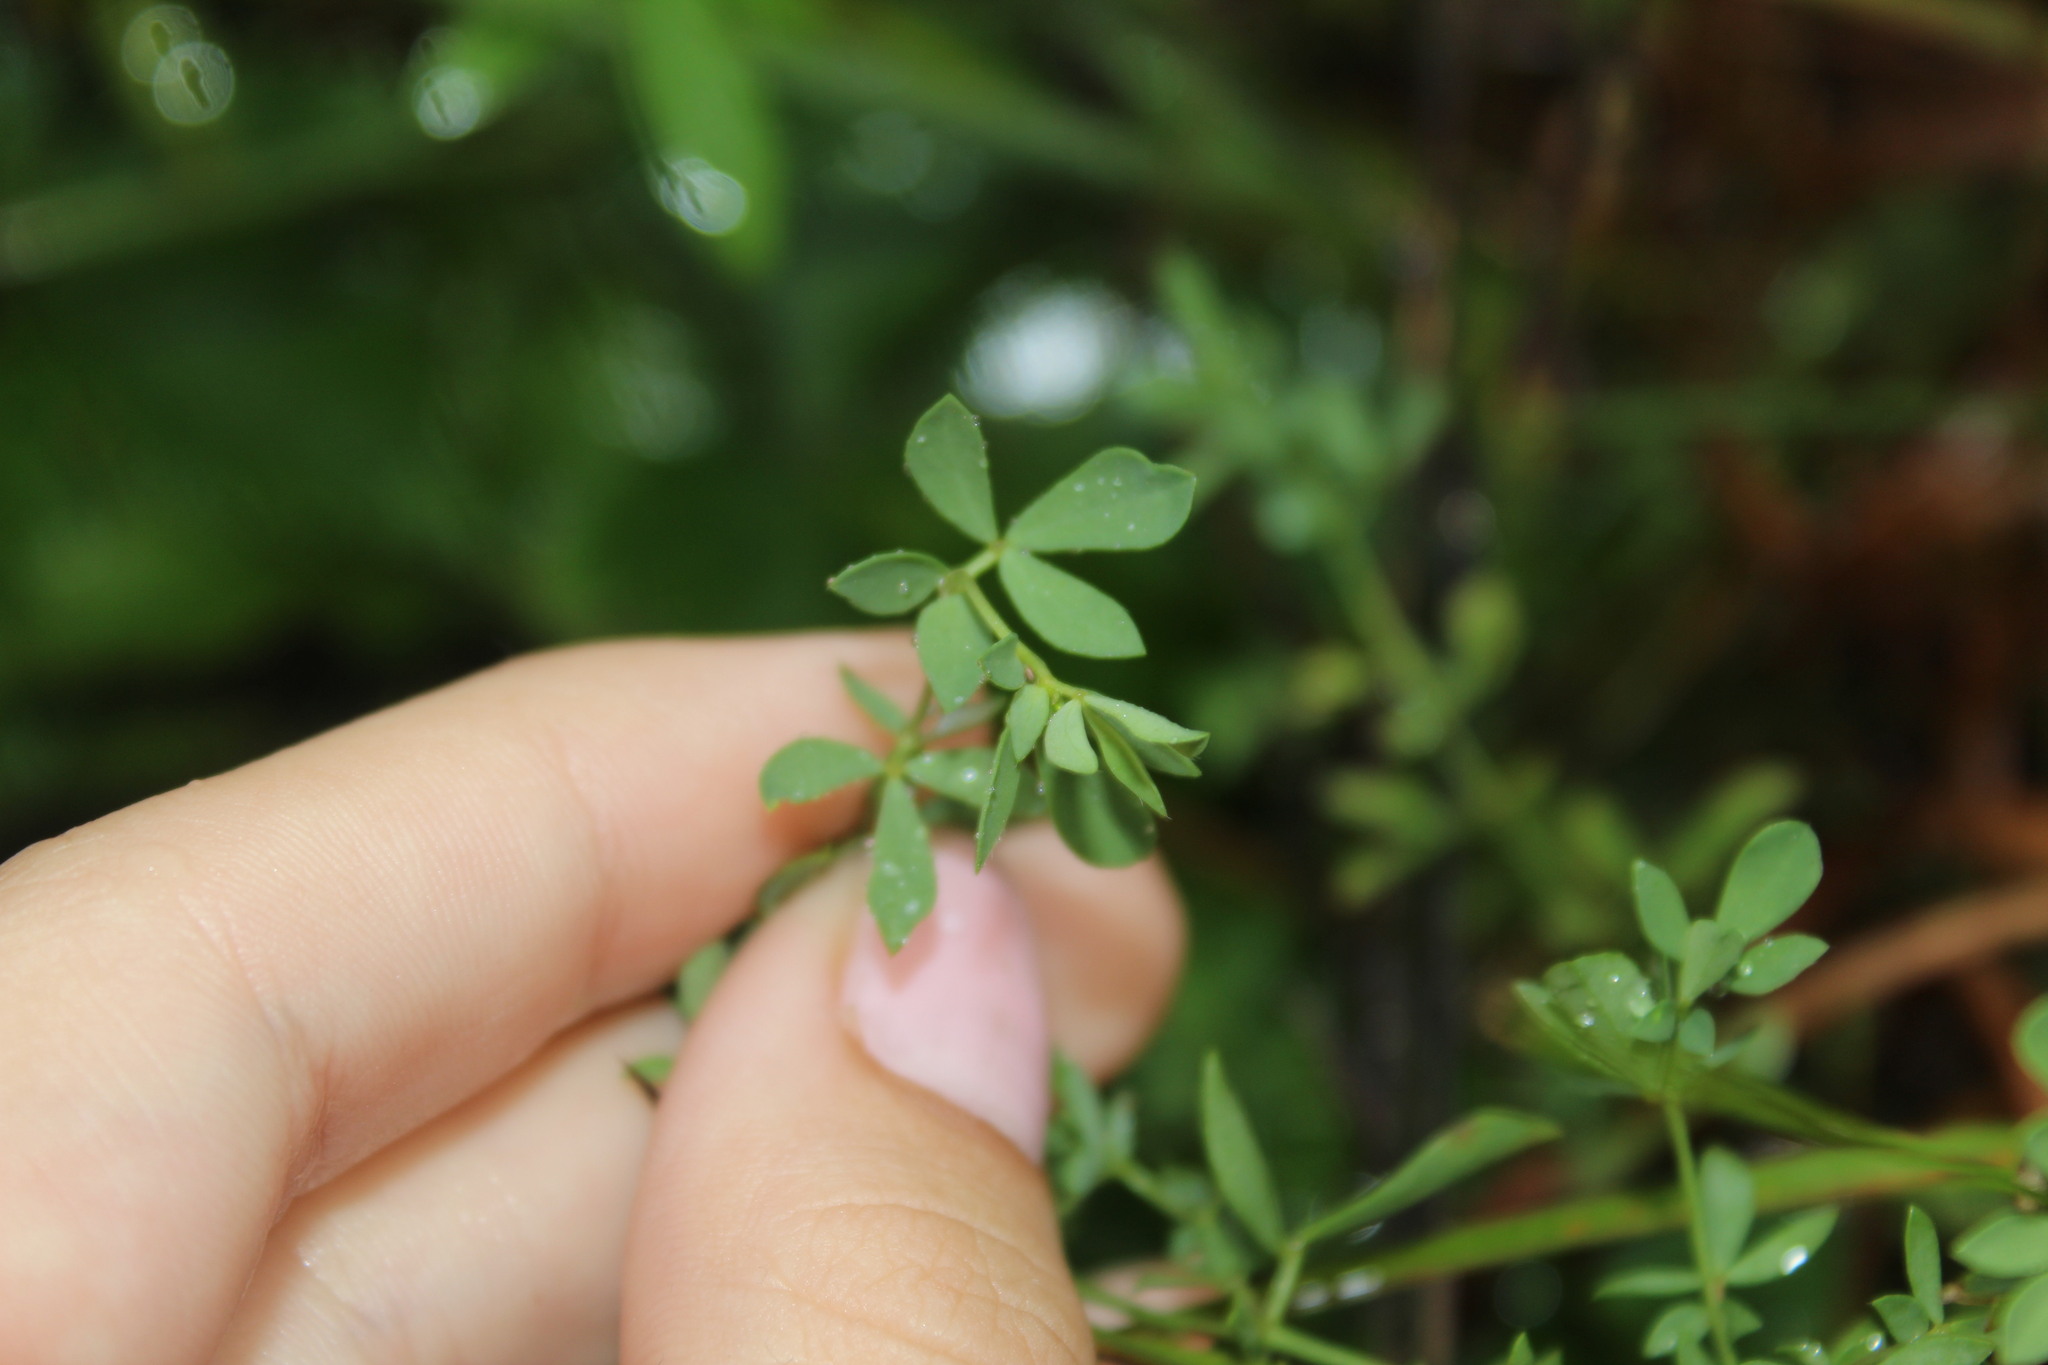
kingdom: Plantae
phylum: Tracheophyta
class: Magnoliopsida
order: Fabales
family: Fabaceae
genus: Lotus
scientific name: Lotus corniculatus
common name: Common bird's-foot-trefoil
